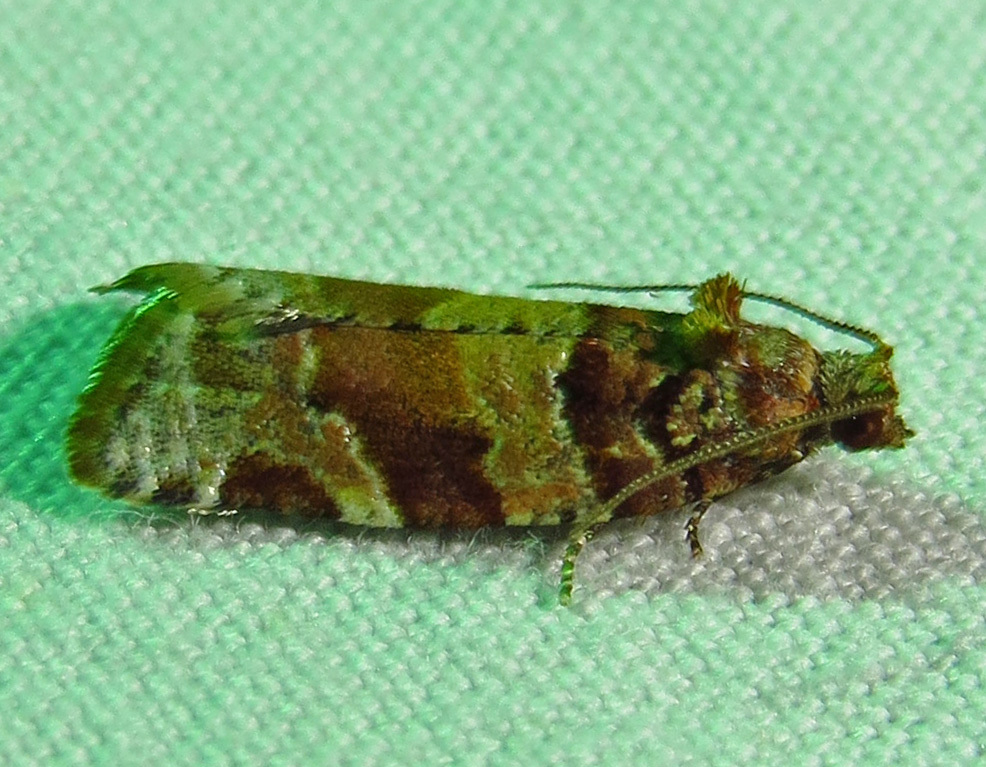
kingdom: Animalia
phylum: Arthropoda
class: Insecta
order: Lepidoptera
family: Tortricidae
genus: Argyrotaenia
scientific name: Argyrotaenia kimballi
